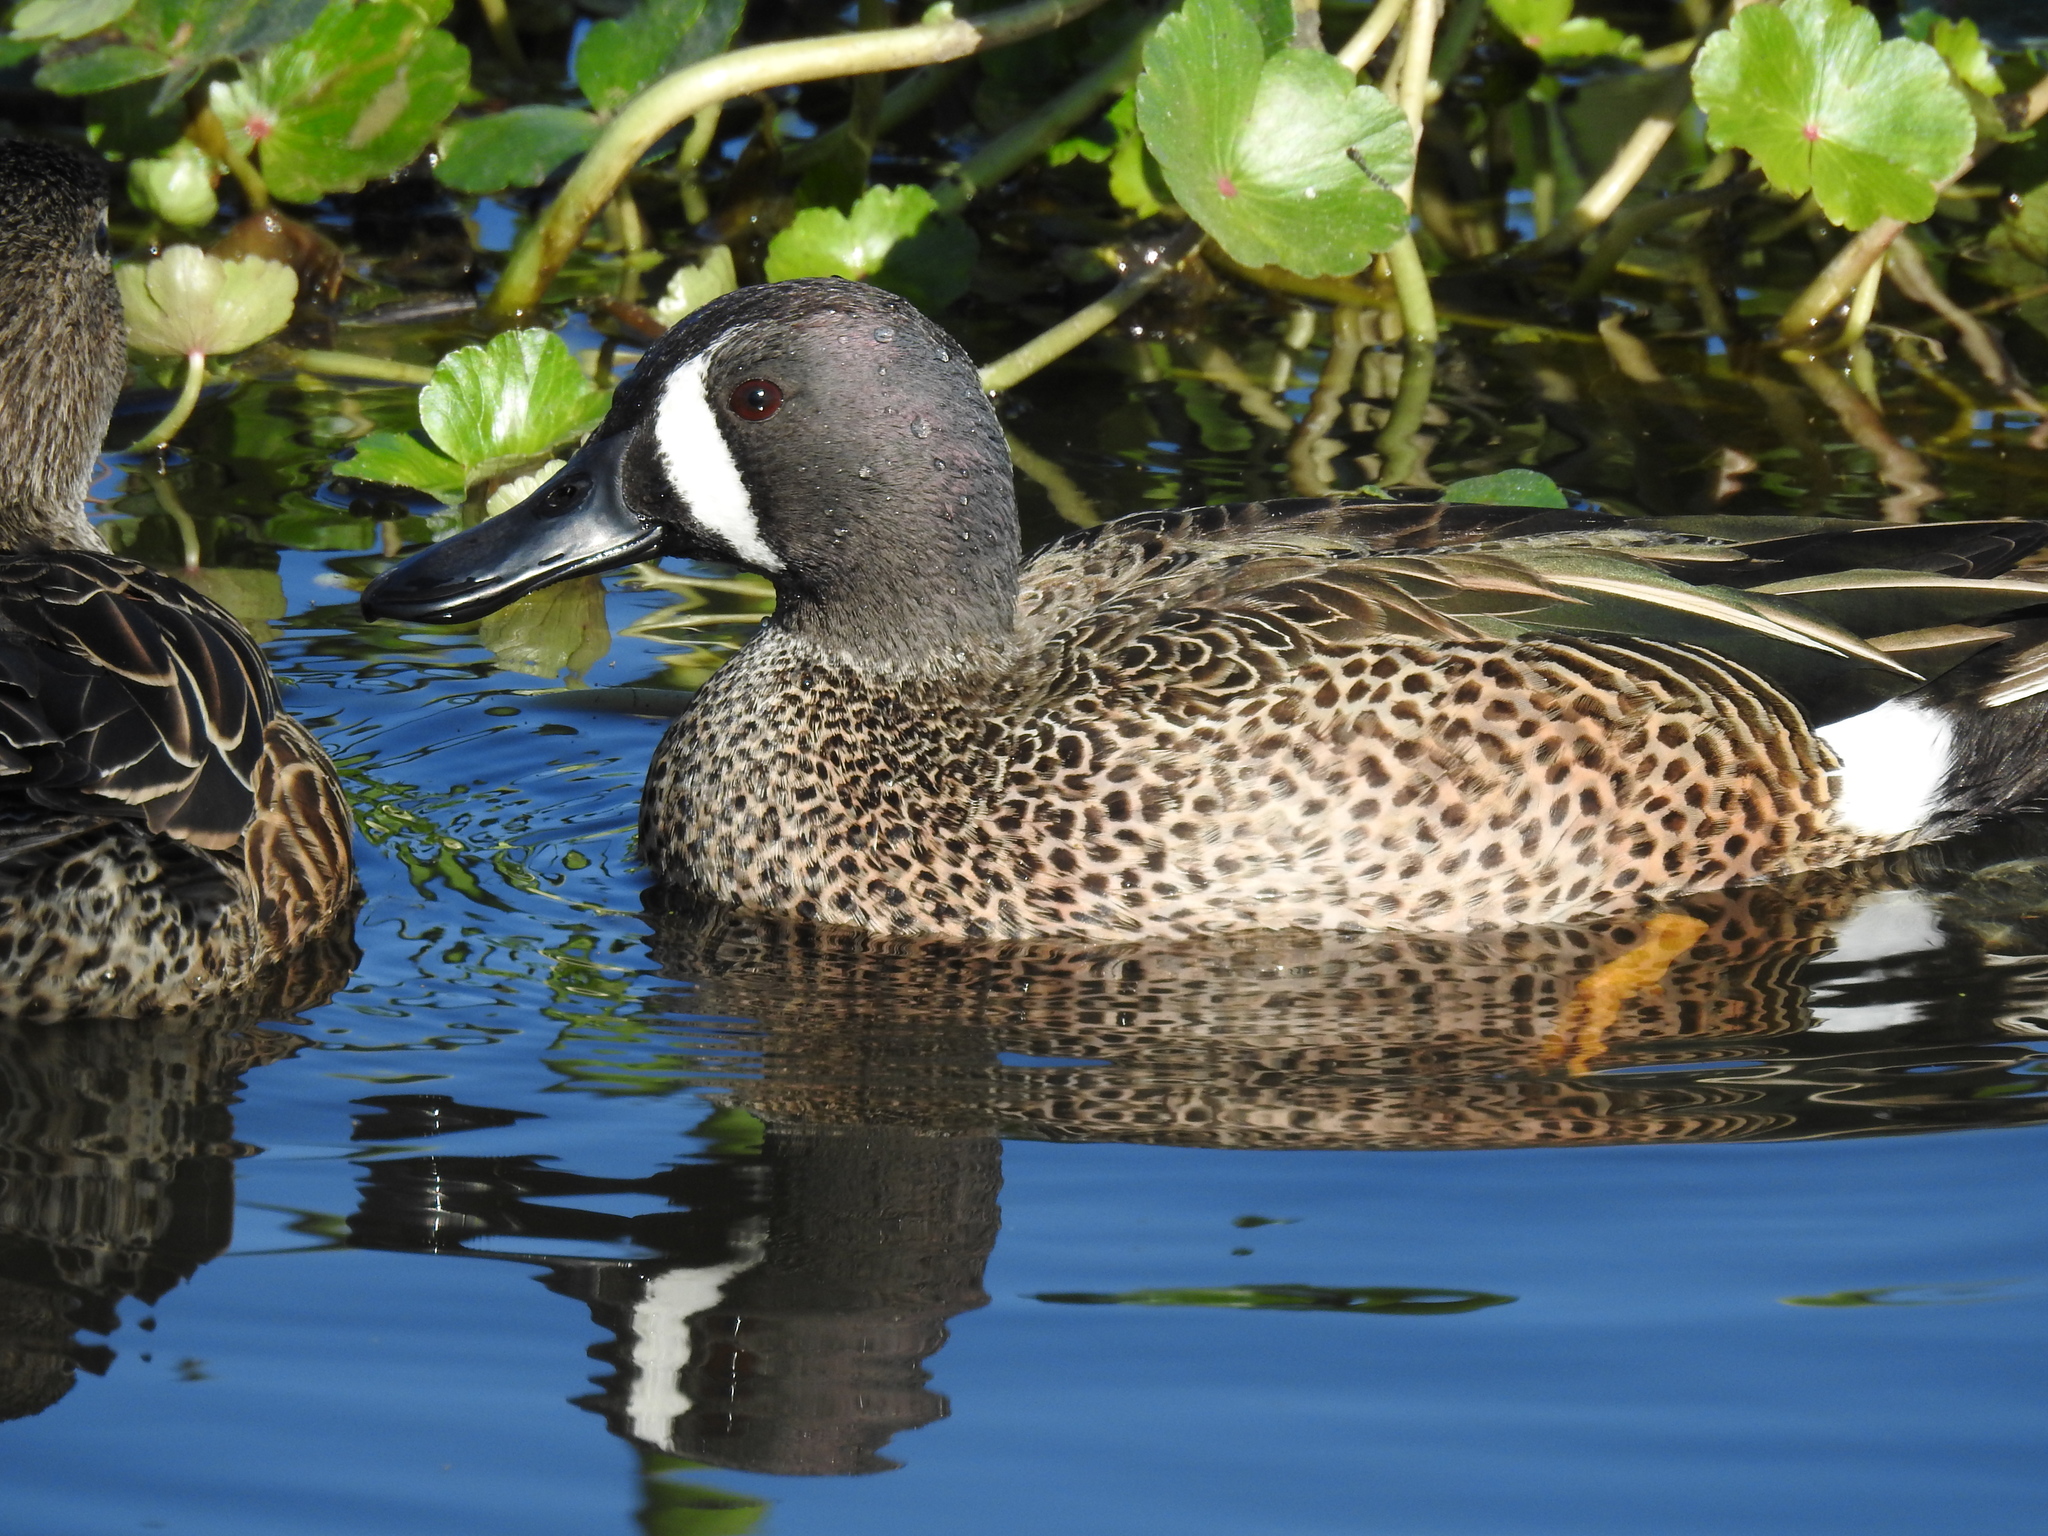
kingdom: Animalia
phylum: Chordata
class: Aves
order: Anseriformes
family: Anatidae
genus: Spatula
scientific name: Spatula discors
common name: Blue-winged teal
